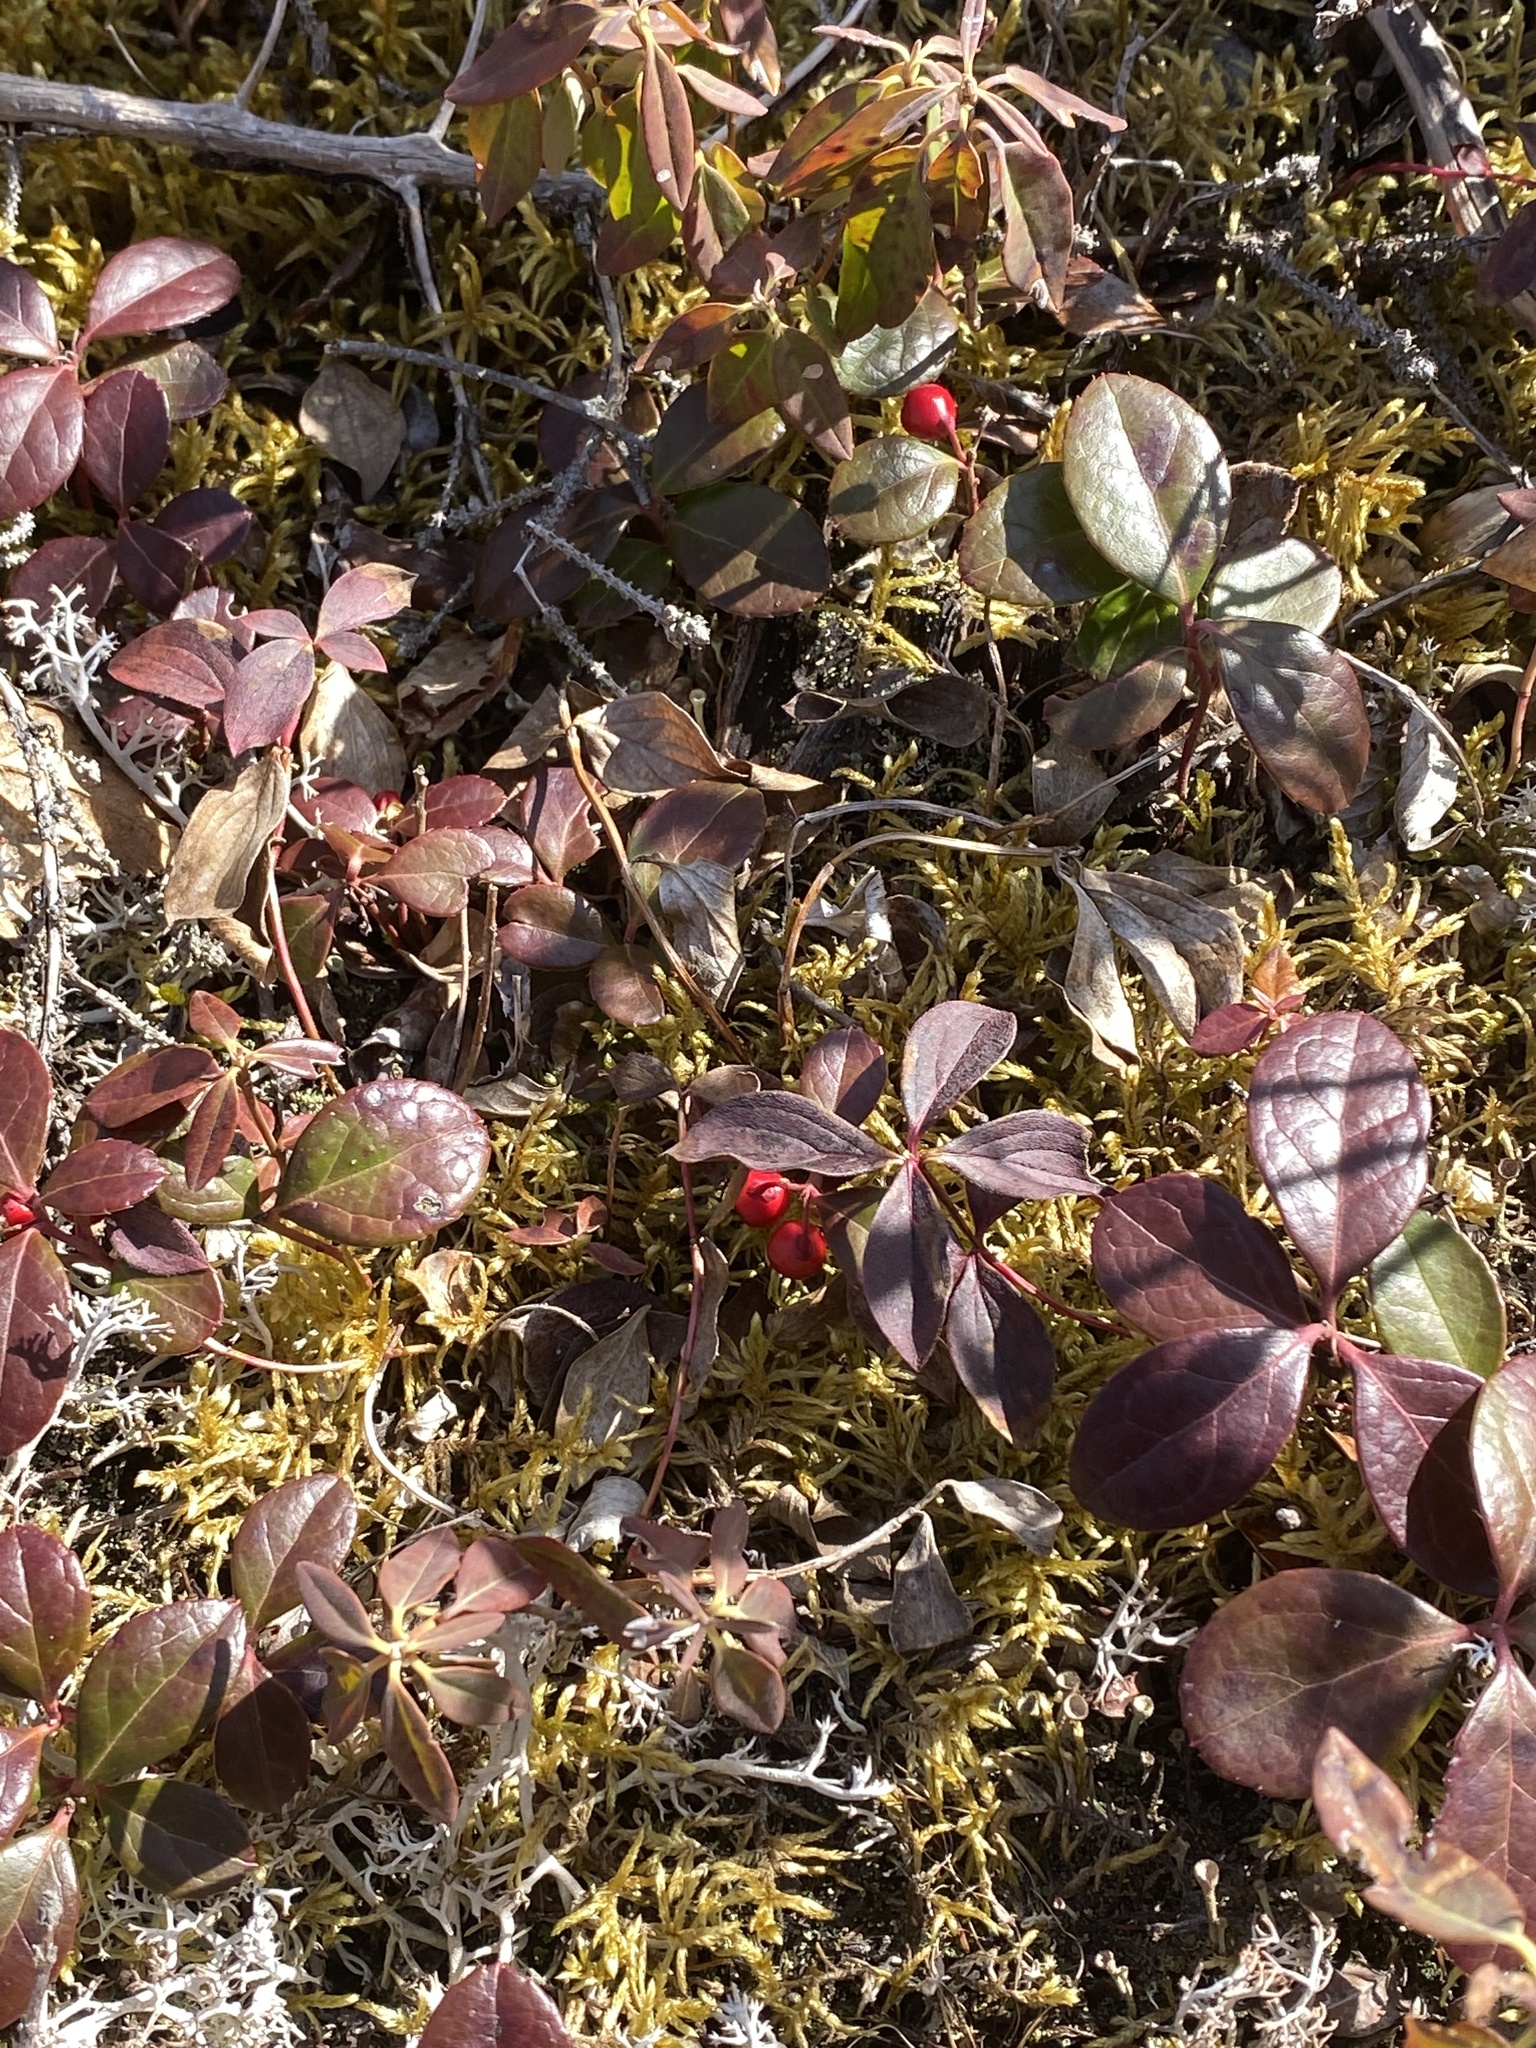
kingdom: Plantae
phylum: Tracheophyta
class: Magnoliopsida
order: Ericales
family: Ericaceae
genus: Gaultheria
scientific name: Gaultheria procumbens
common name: Checkerberry
